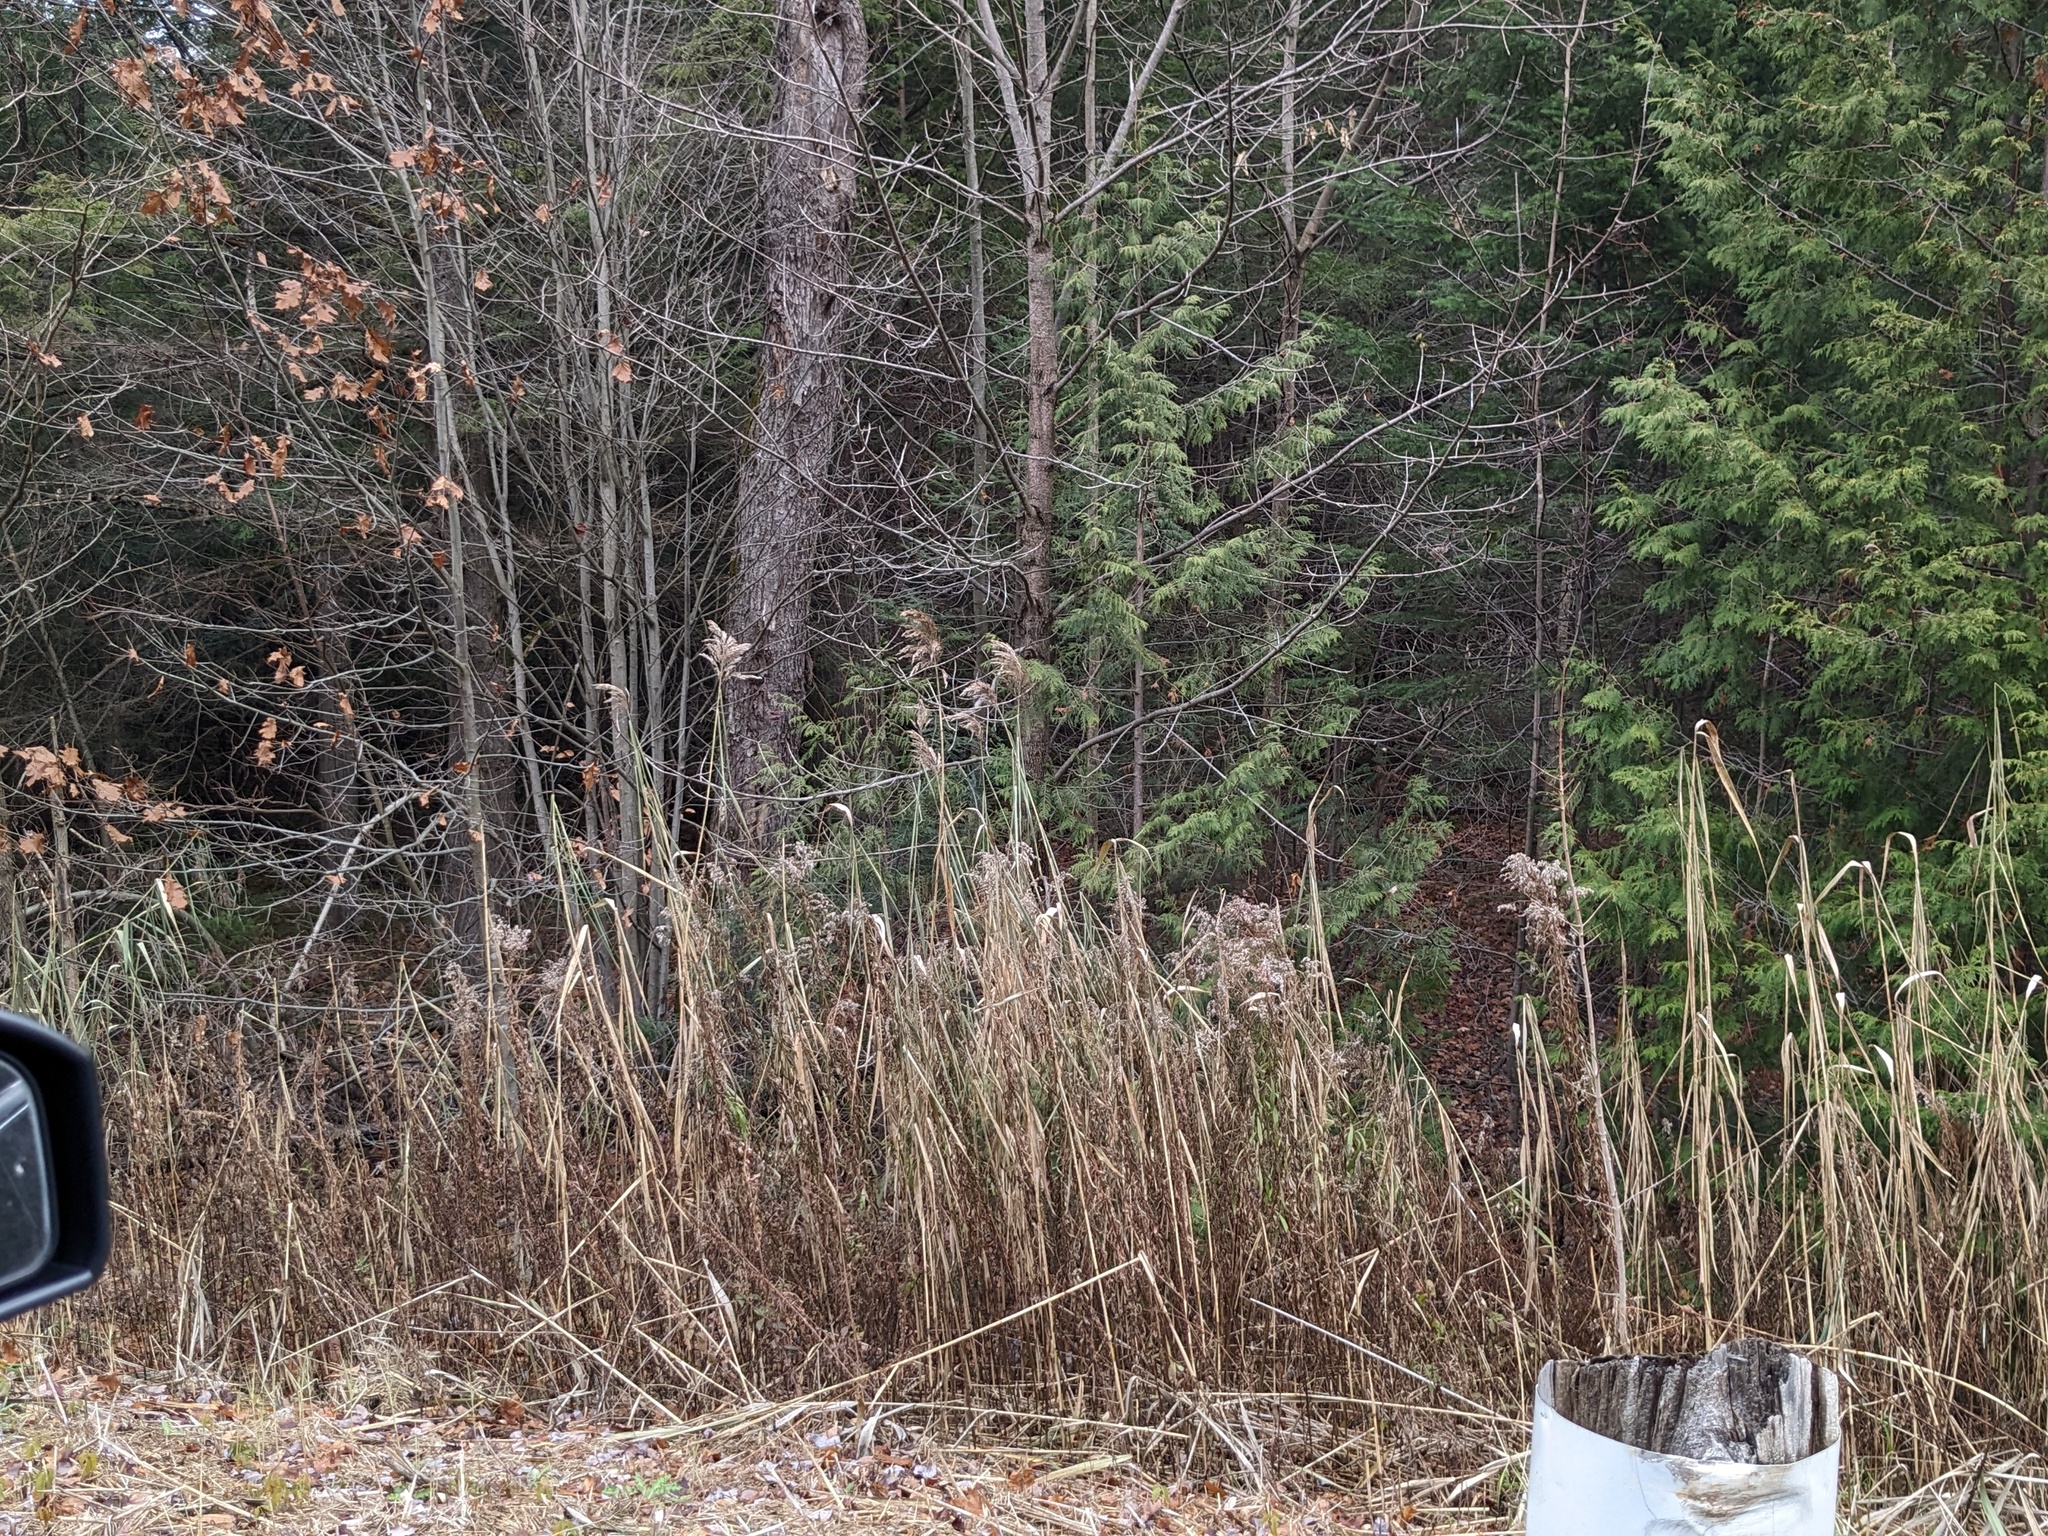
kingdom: Plantae
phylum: Tracheophyta
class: Liliopsida
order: Poales
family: Poaceae
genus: Phragmites
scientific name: Phragmites australis
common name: Common reed
